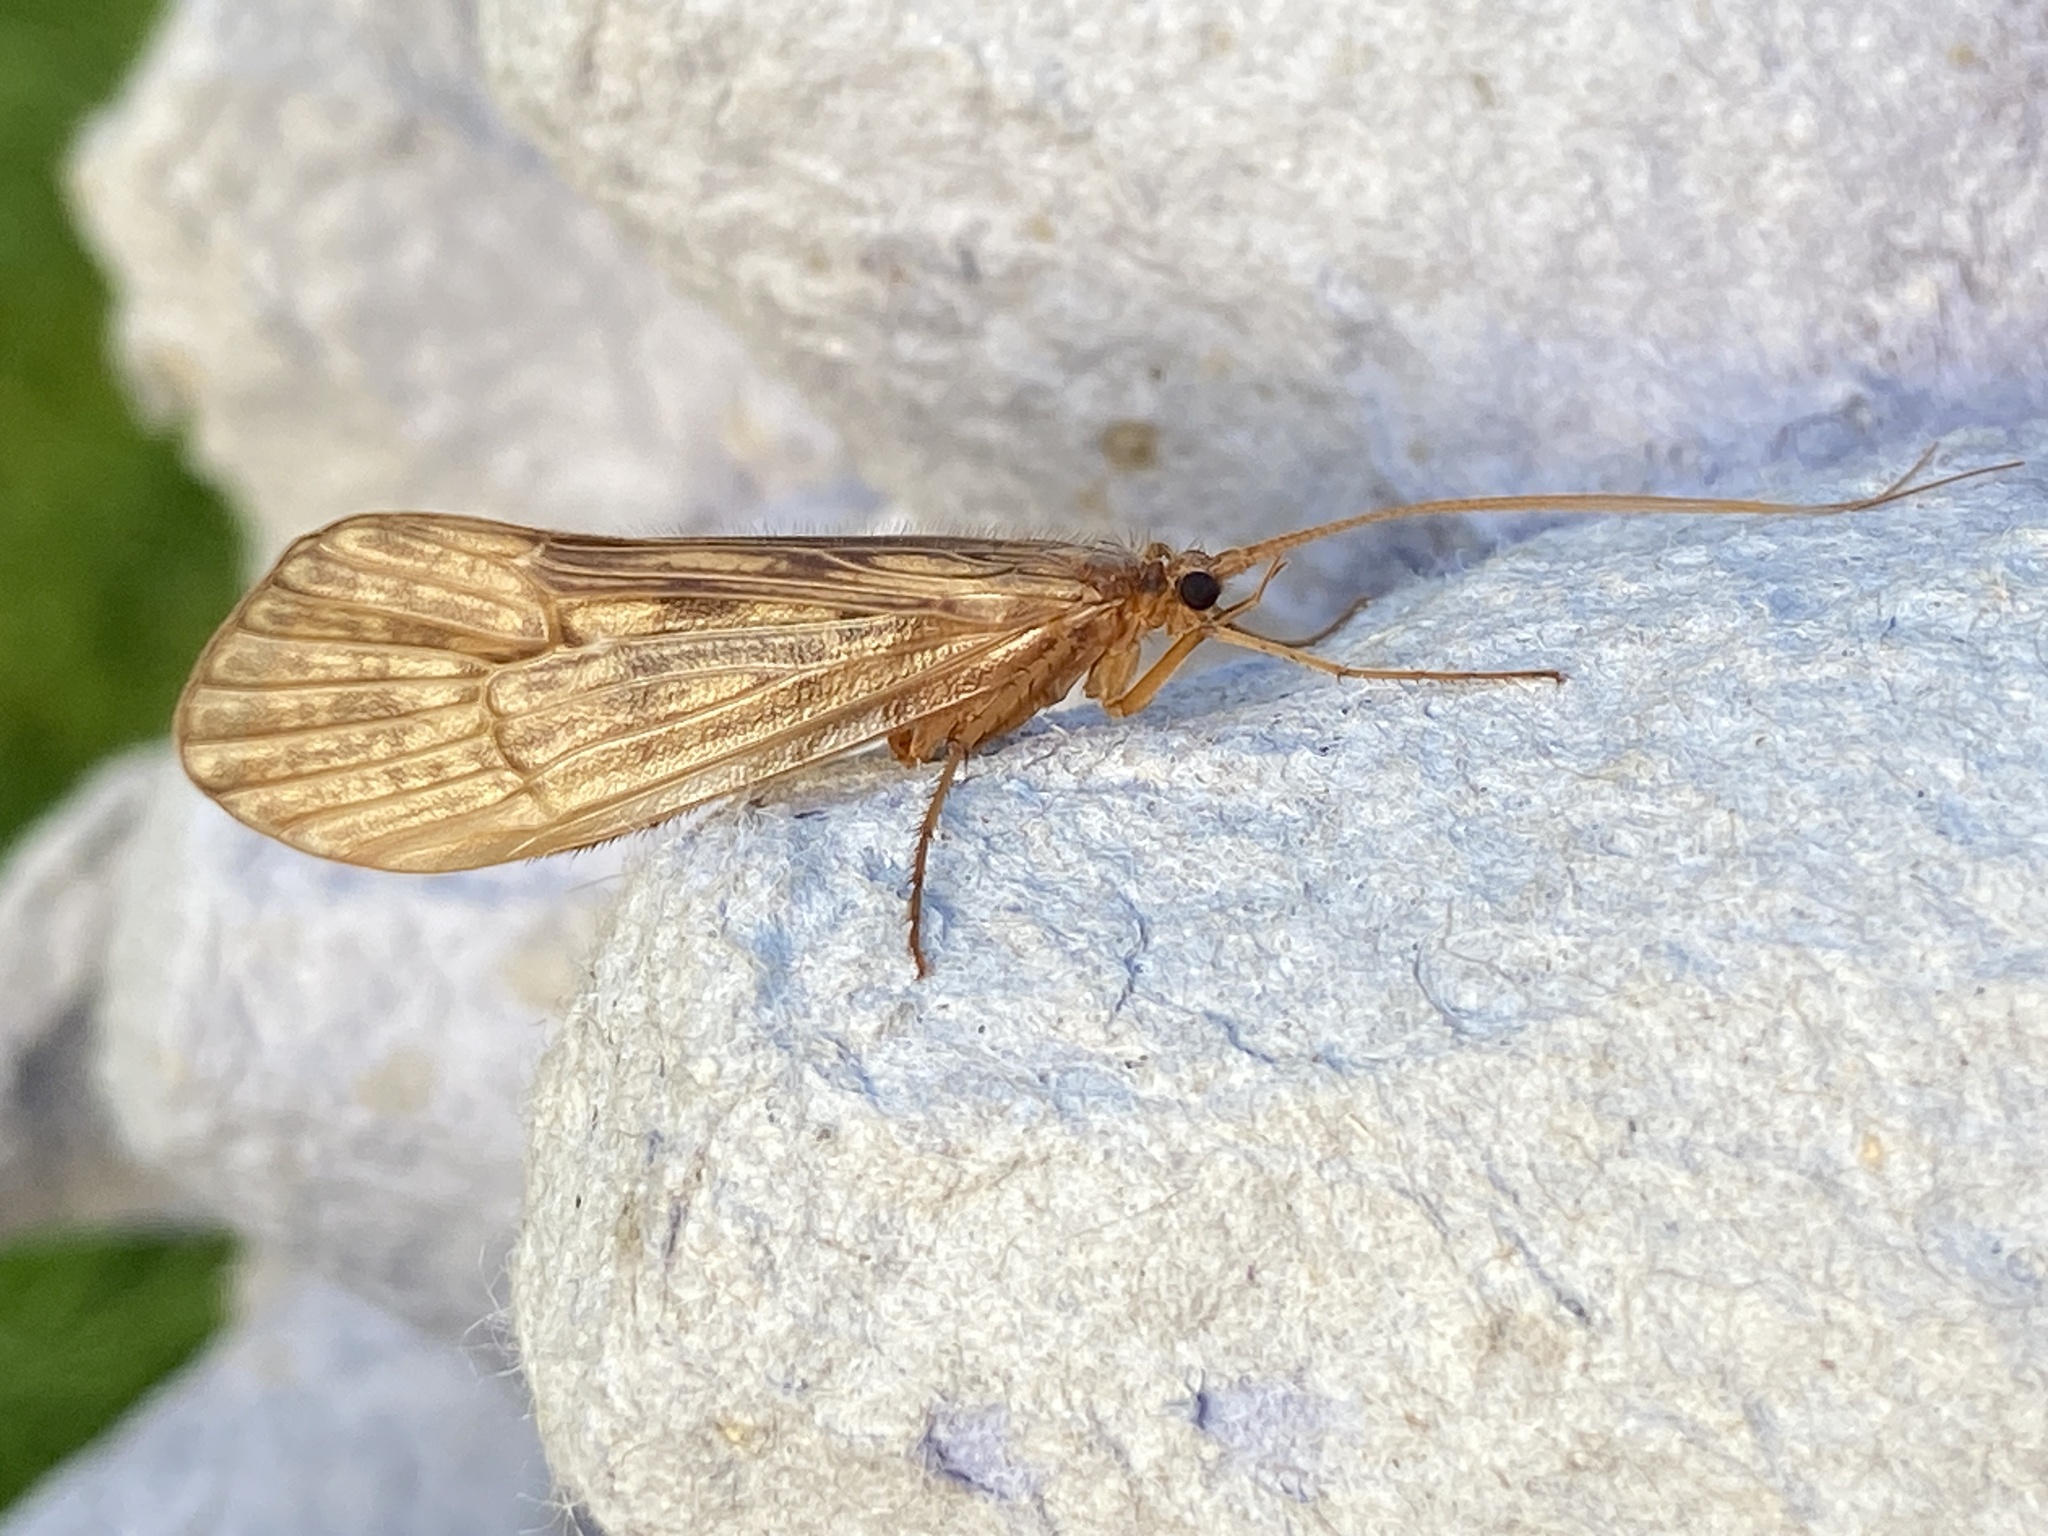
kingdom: Animalia
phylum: Arthropoda
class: Insecta
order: Trichoptera
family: Limnephilidae
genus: Halesus
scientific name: Halesus digitatus
